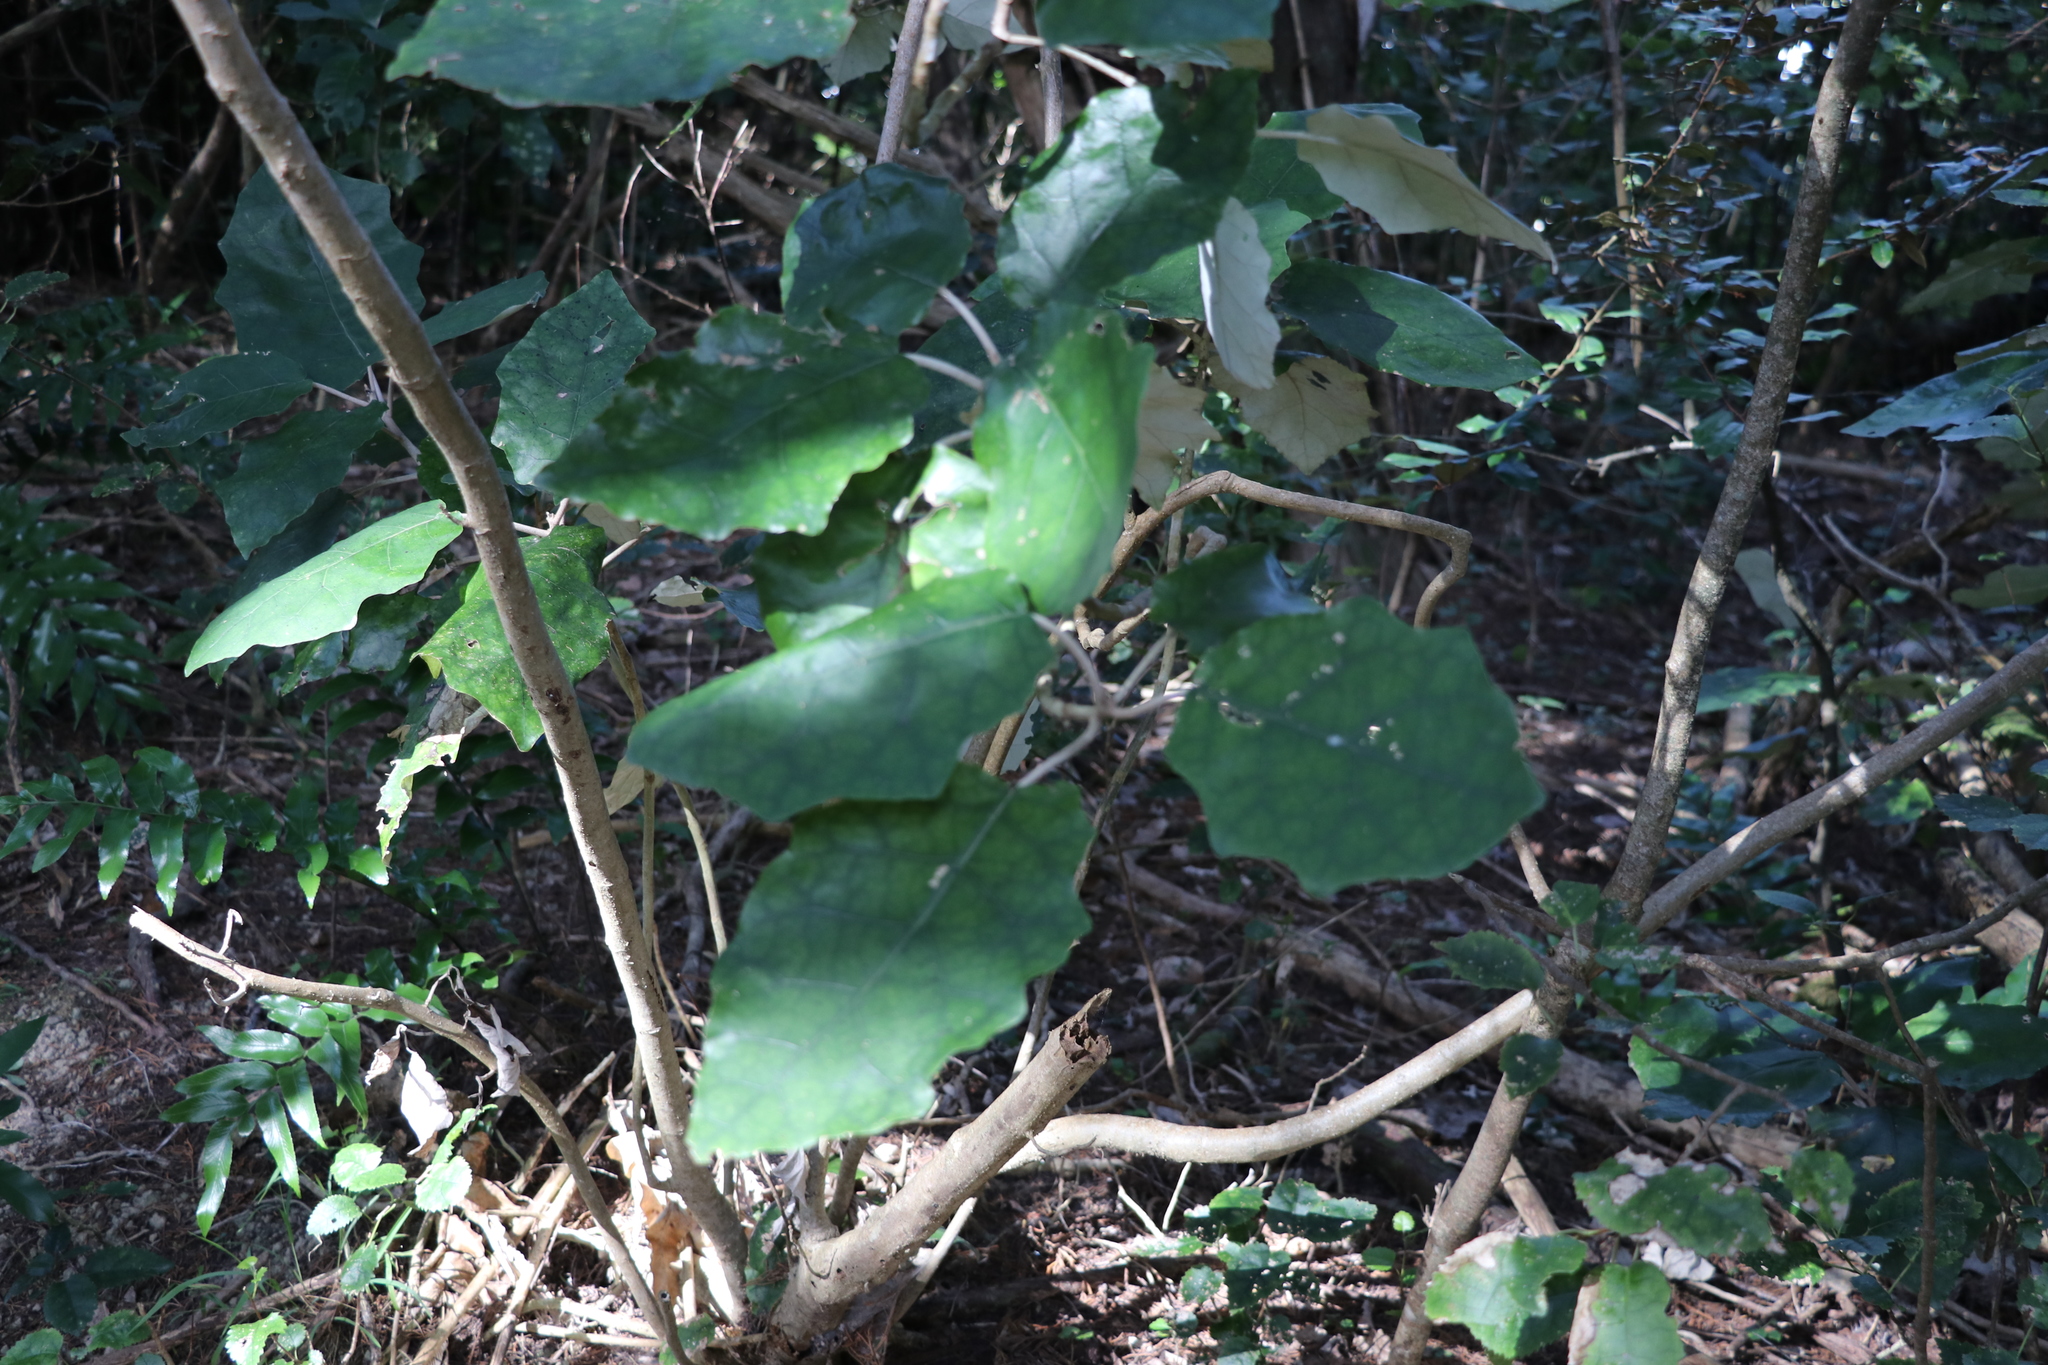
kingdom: Plantae
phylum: Tracheophyta
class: Magnoliopsida
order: Asterales
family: Asteraceae
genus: Brachyglottis
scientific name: Brachyglottis repanda
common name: Hedge ragwort
